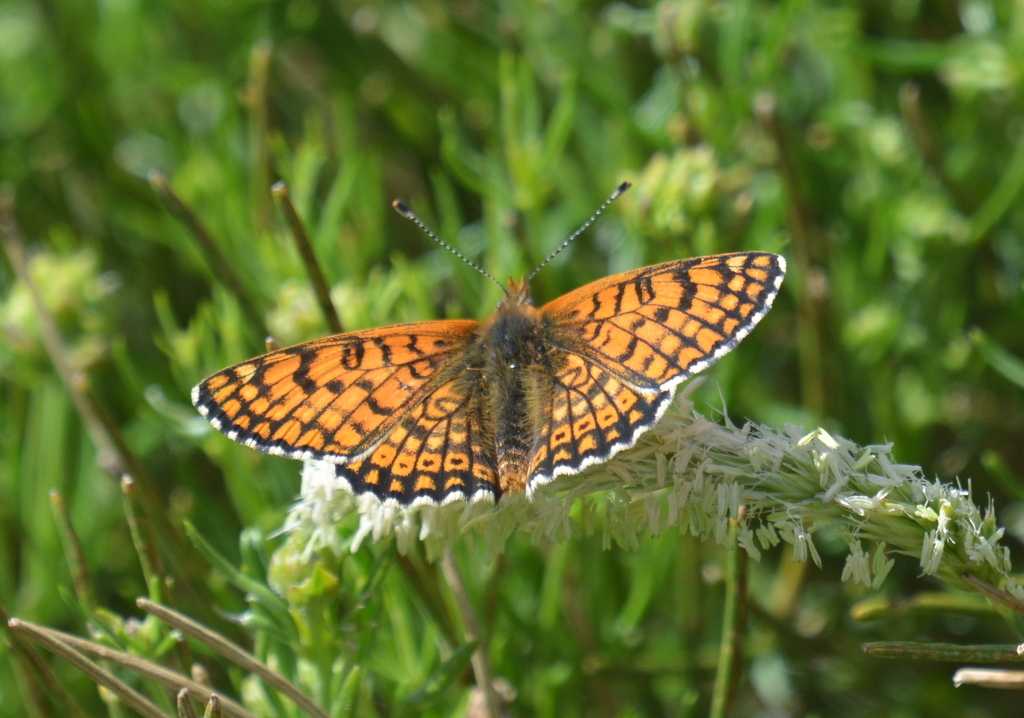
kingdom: Animalia
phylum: Arthropoda
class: Insecta
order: Lepidoptera
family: Nymphalidae
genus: Melitaea
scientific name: Melitaea cinxia
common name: Glanville fritillary
